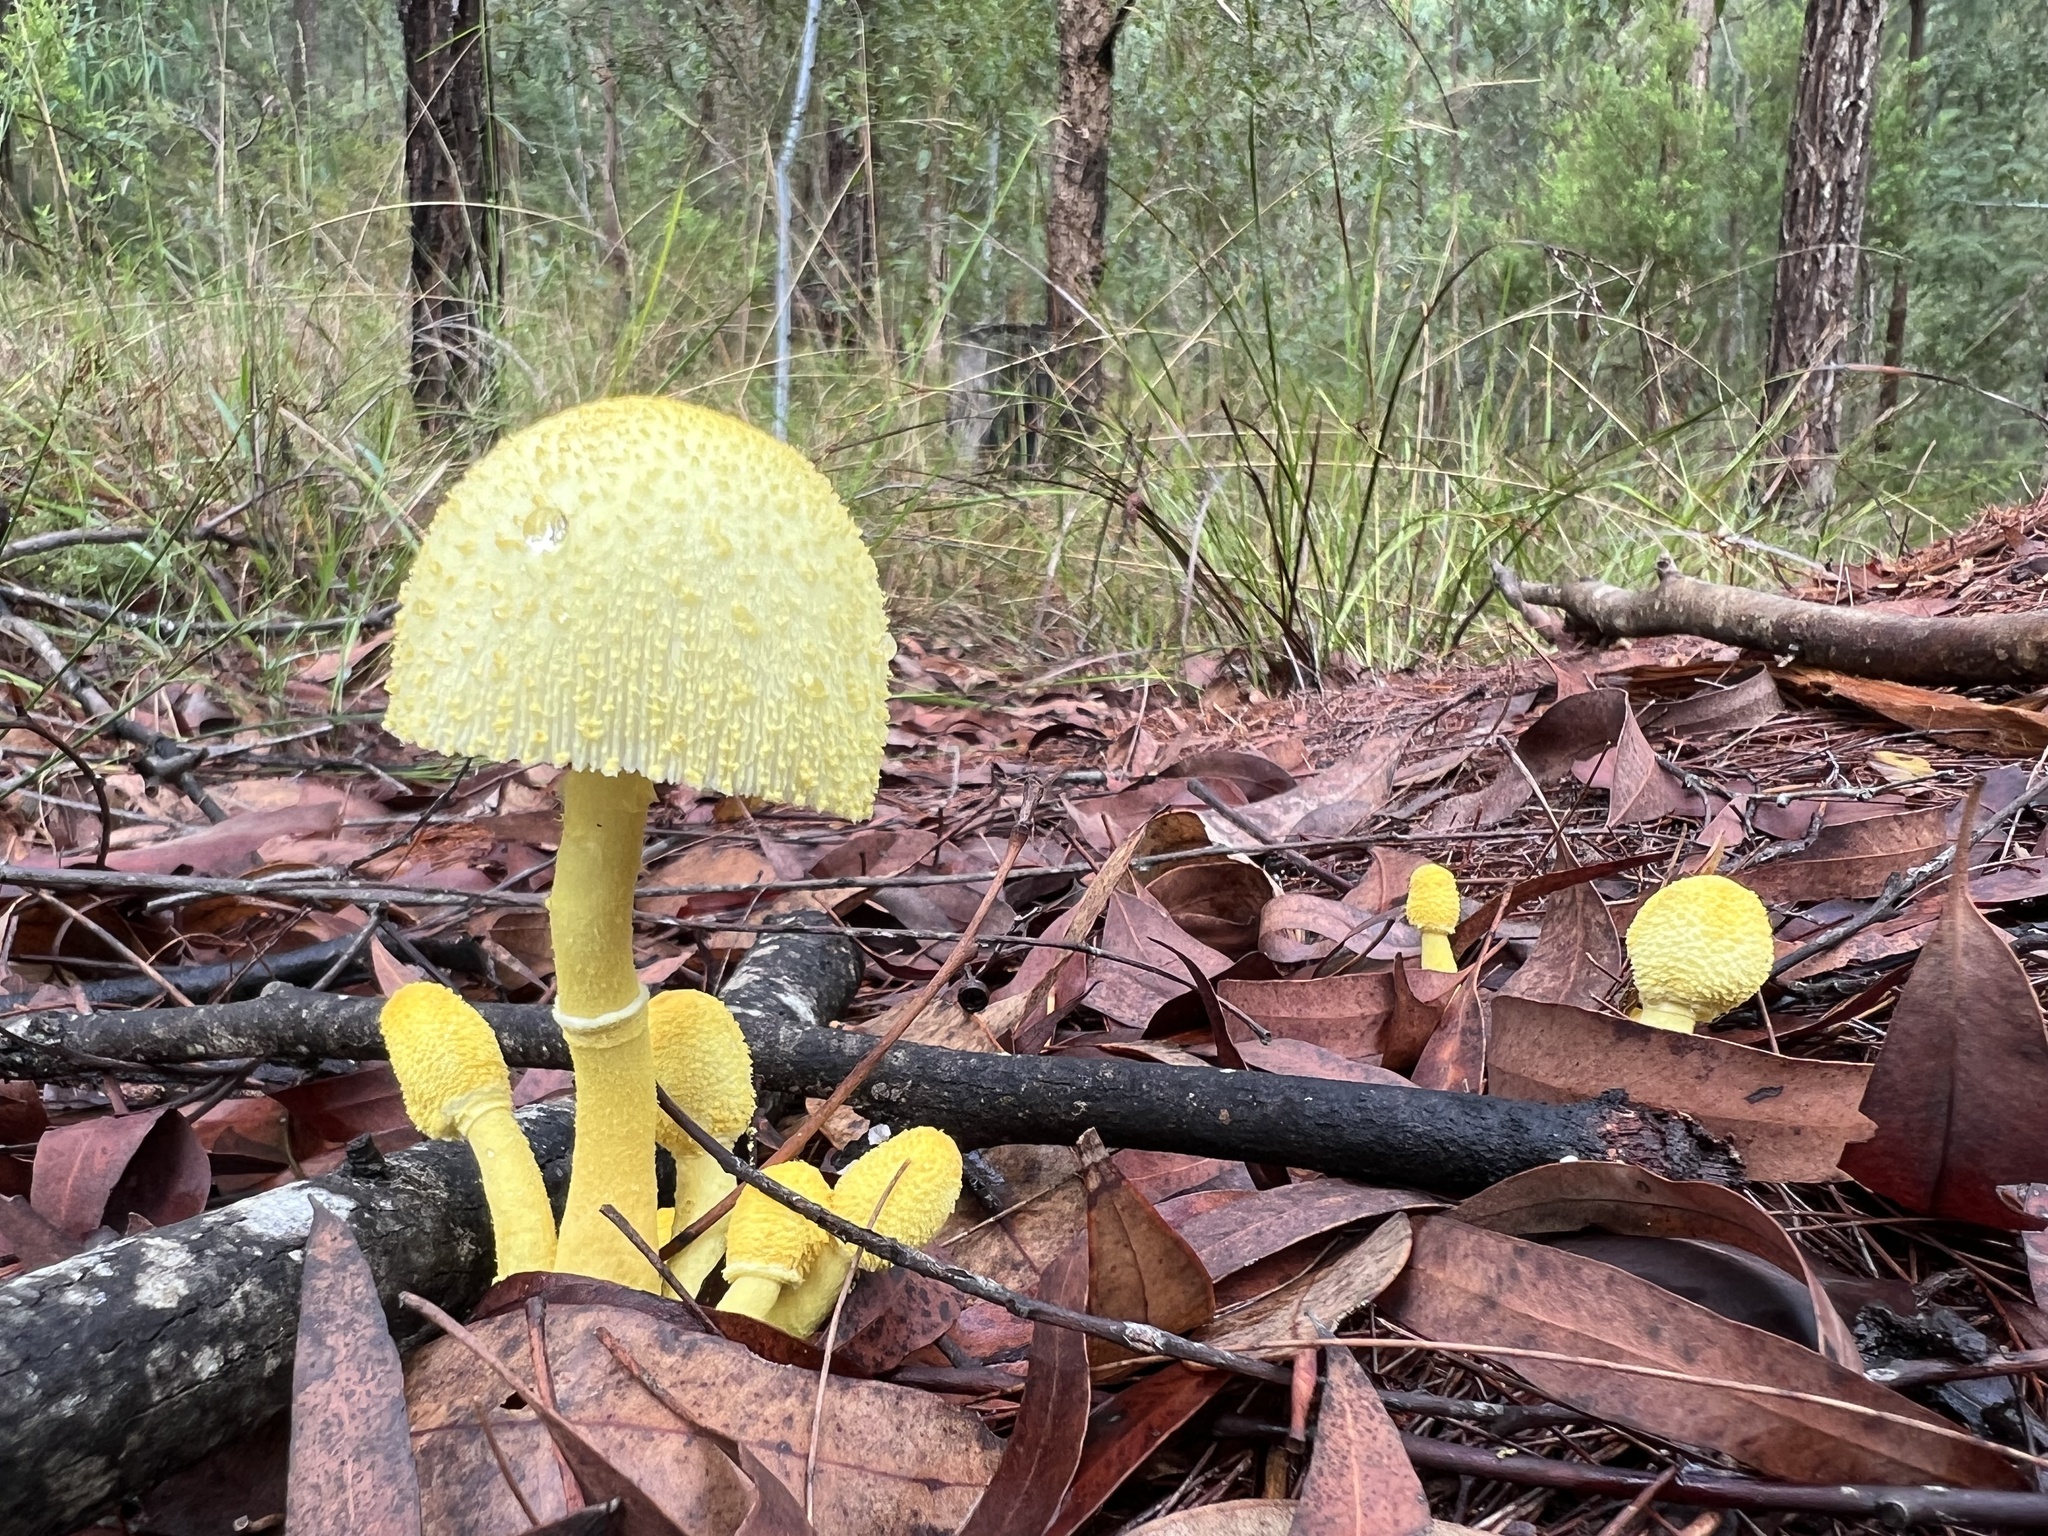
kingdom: Fungi
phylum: Basidiomycota
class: Agaricomycetes
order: Agaricales
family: Agaricaceae
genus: Leucocoprinus
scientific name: Leucocoprinus birnbaumii
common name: Plantpot dapperling
